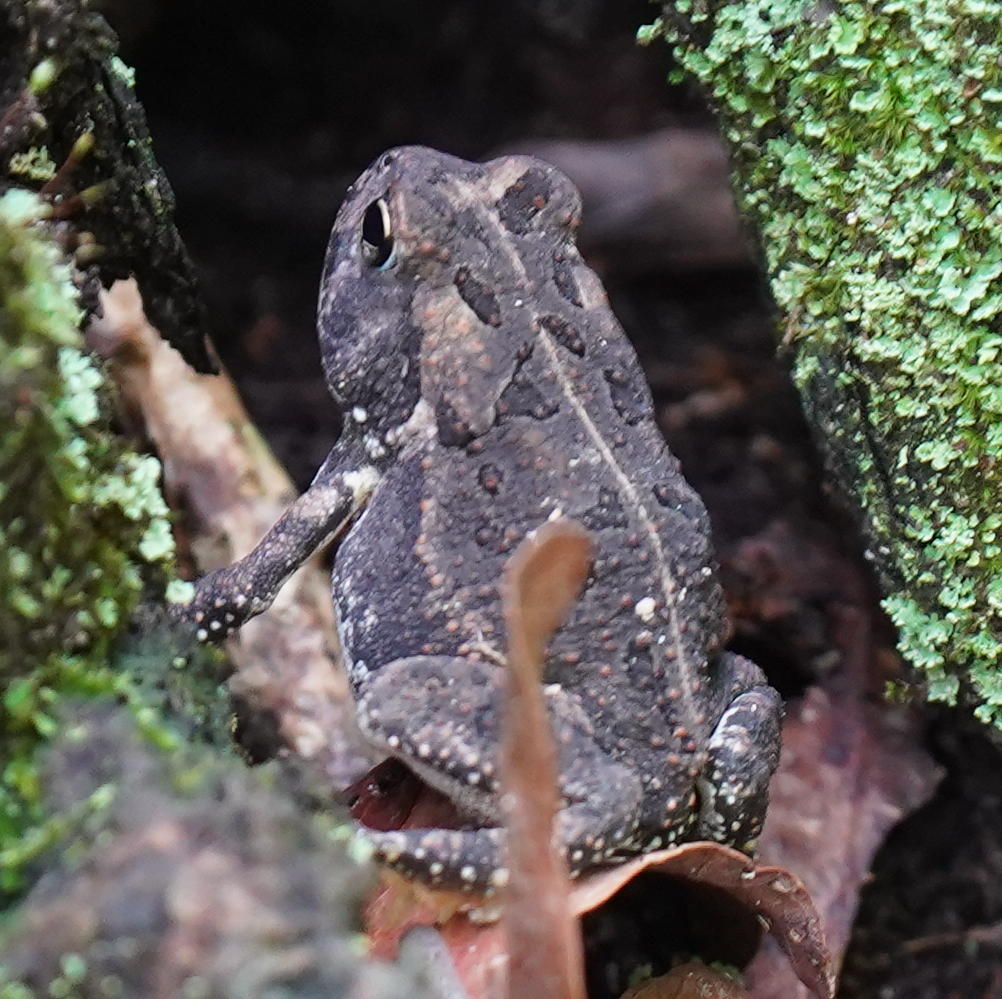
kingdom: Animalia
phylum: Chordata
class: Amphibia
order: Anura
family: Bufonidae
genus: Anaxyrus
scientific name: Anaxyrus fowleri
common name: Fowler's toad
